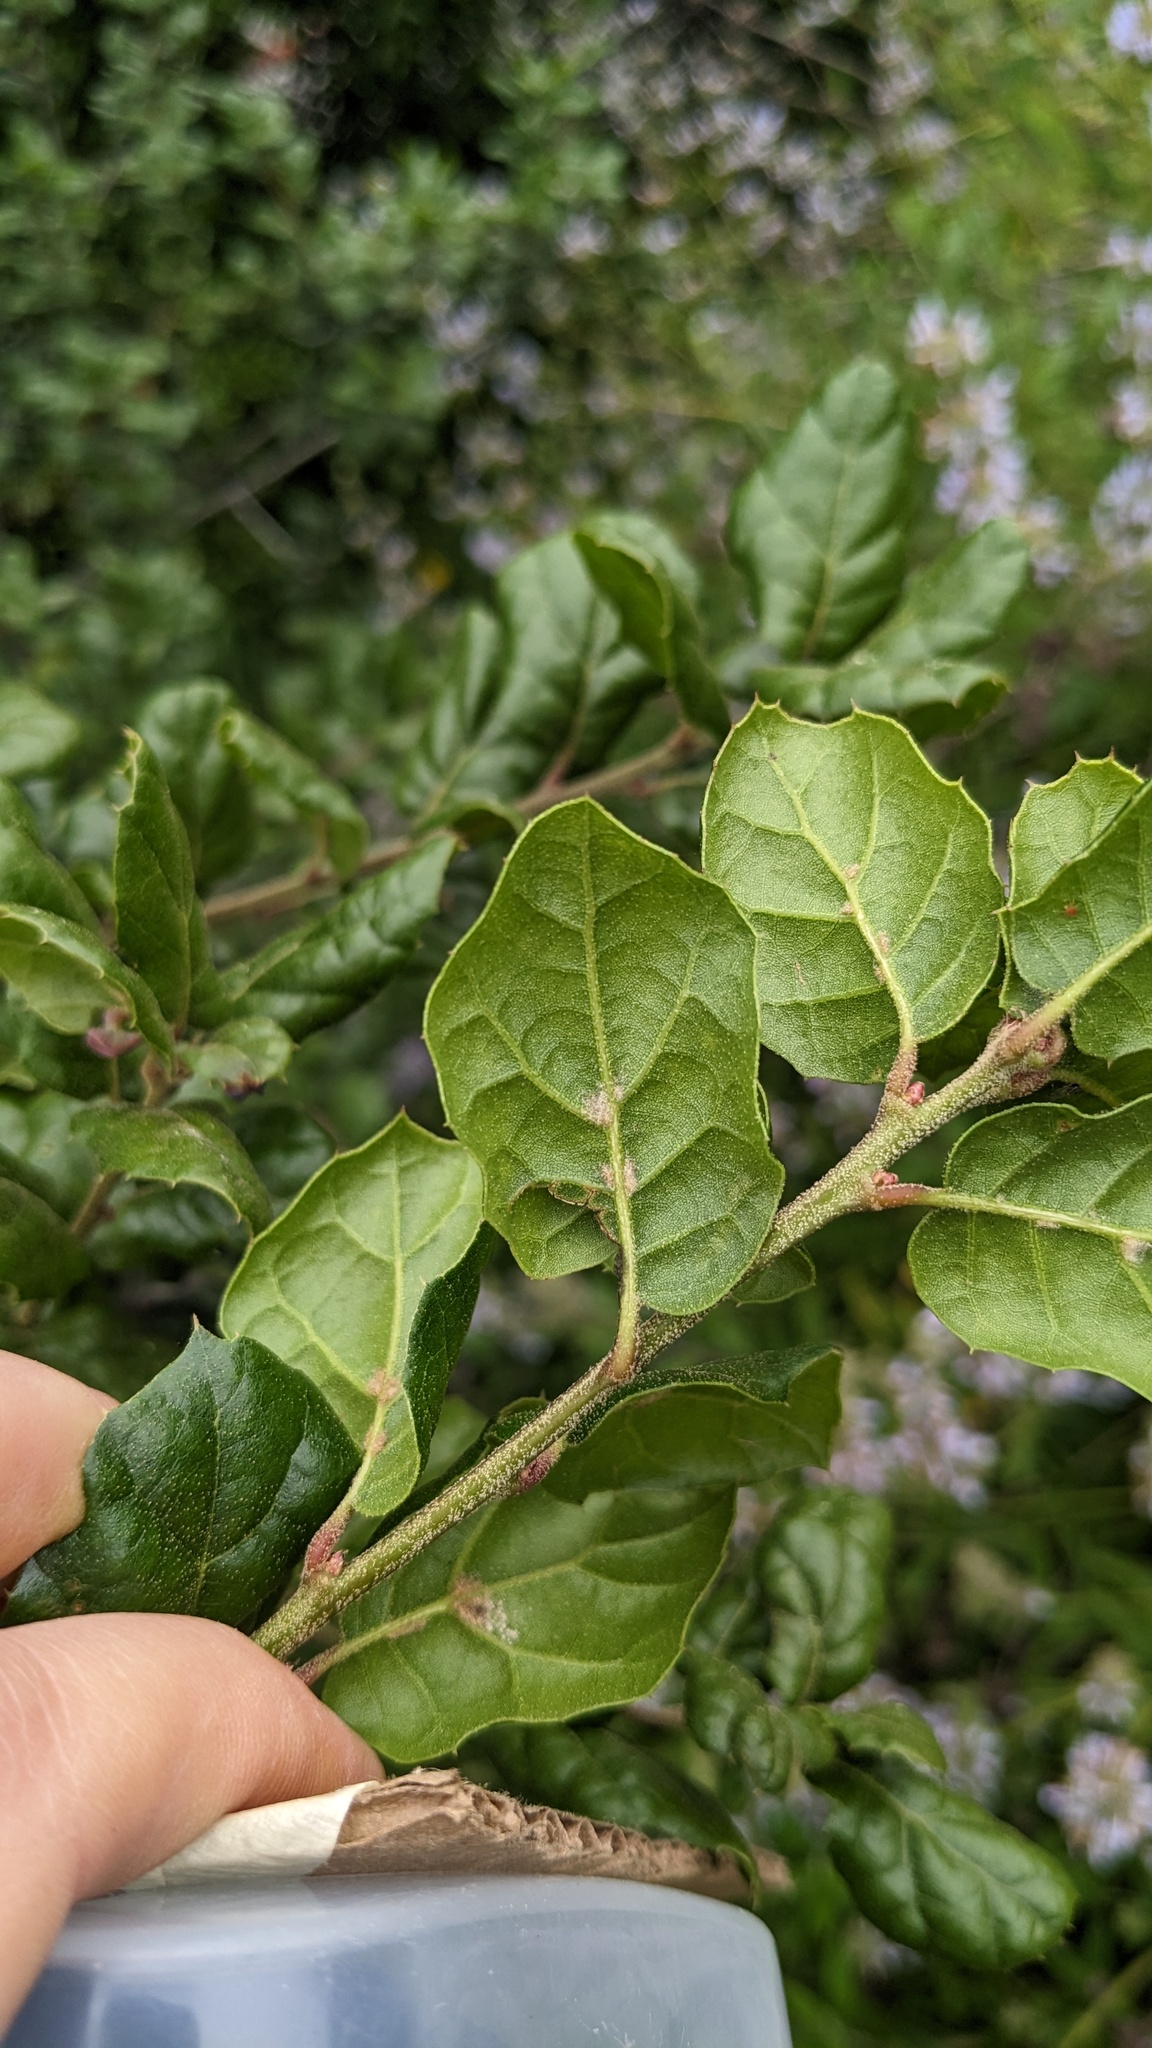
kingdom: Plantae
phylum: Tracheophyta
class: Magnoliopsida
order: Fagales
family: Fagaceae
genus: Quercus
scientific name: Quercus agrifolia
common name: California live oak
